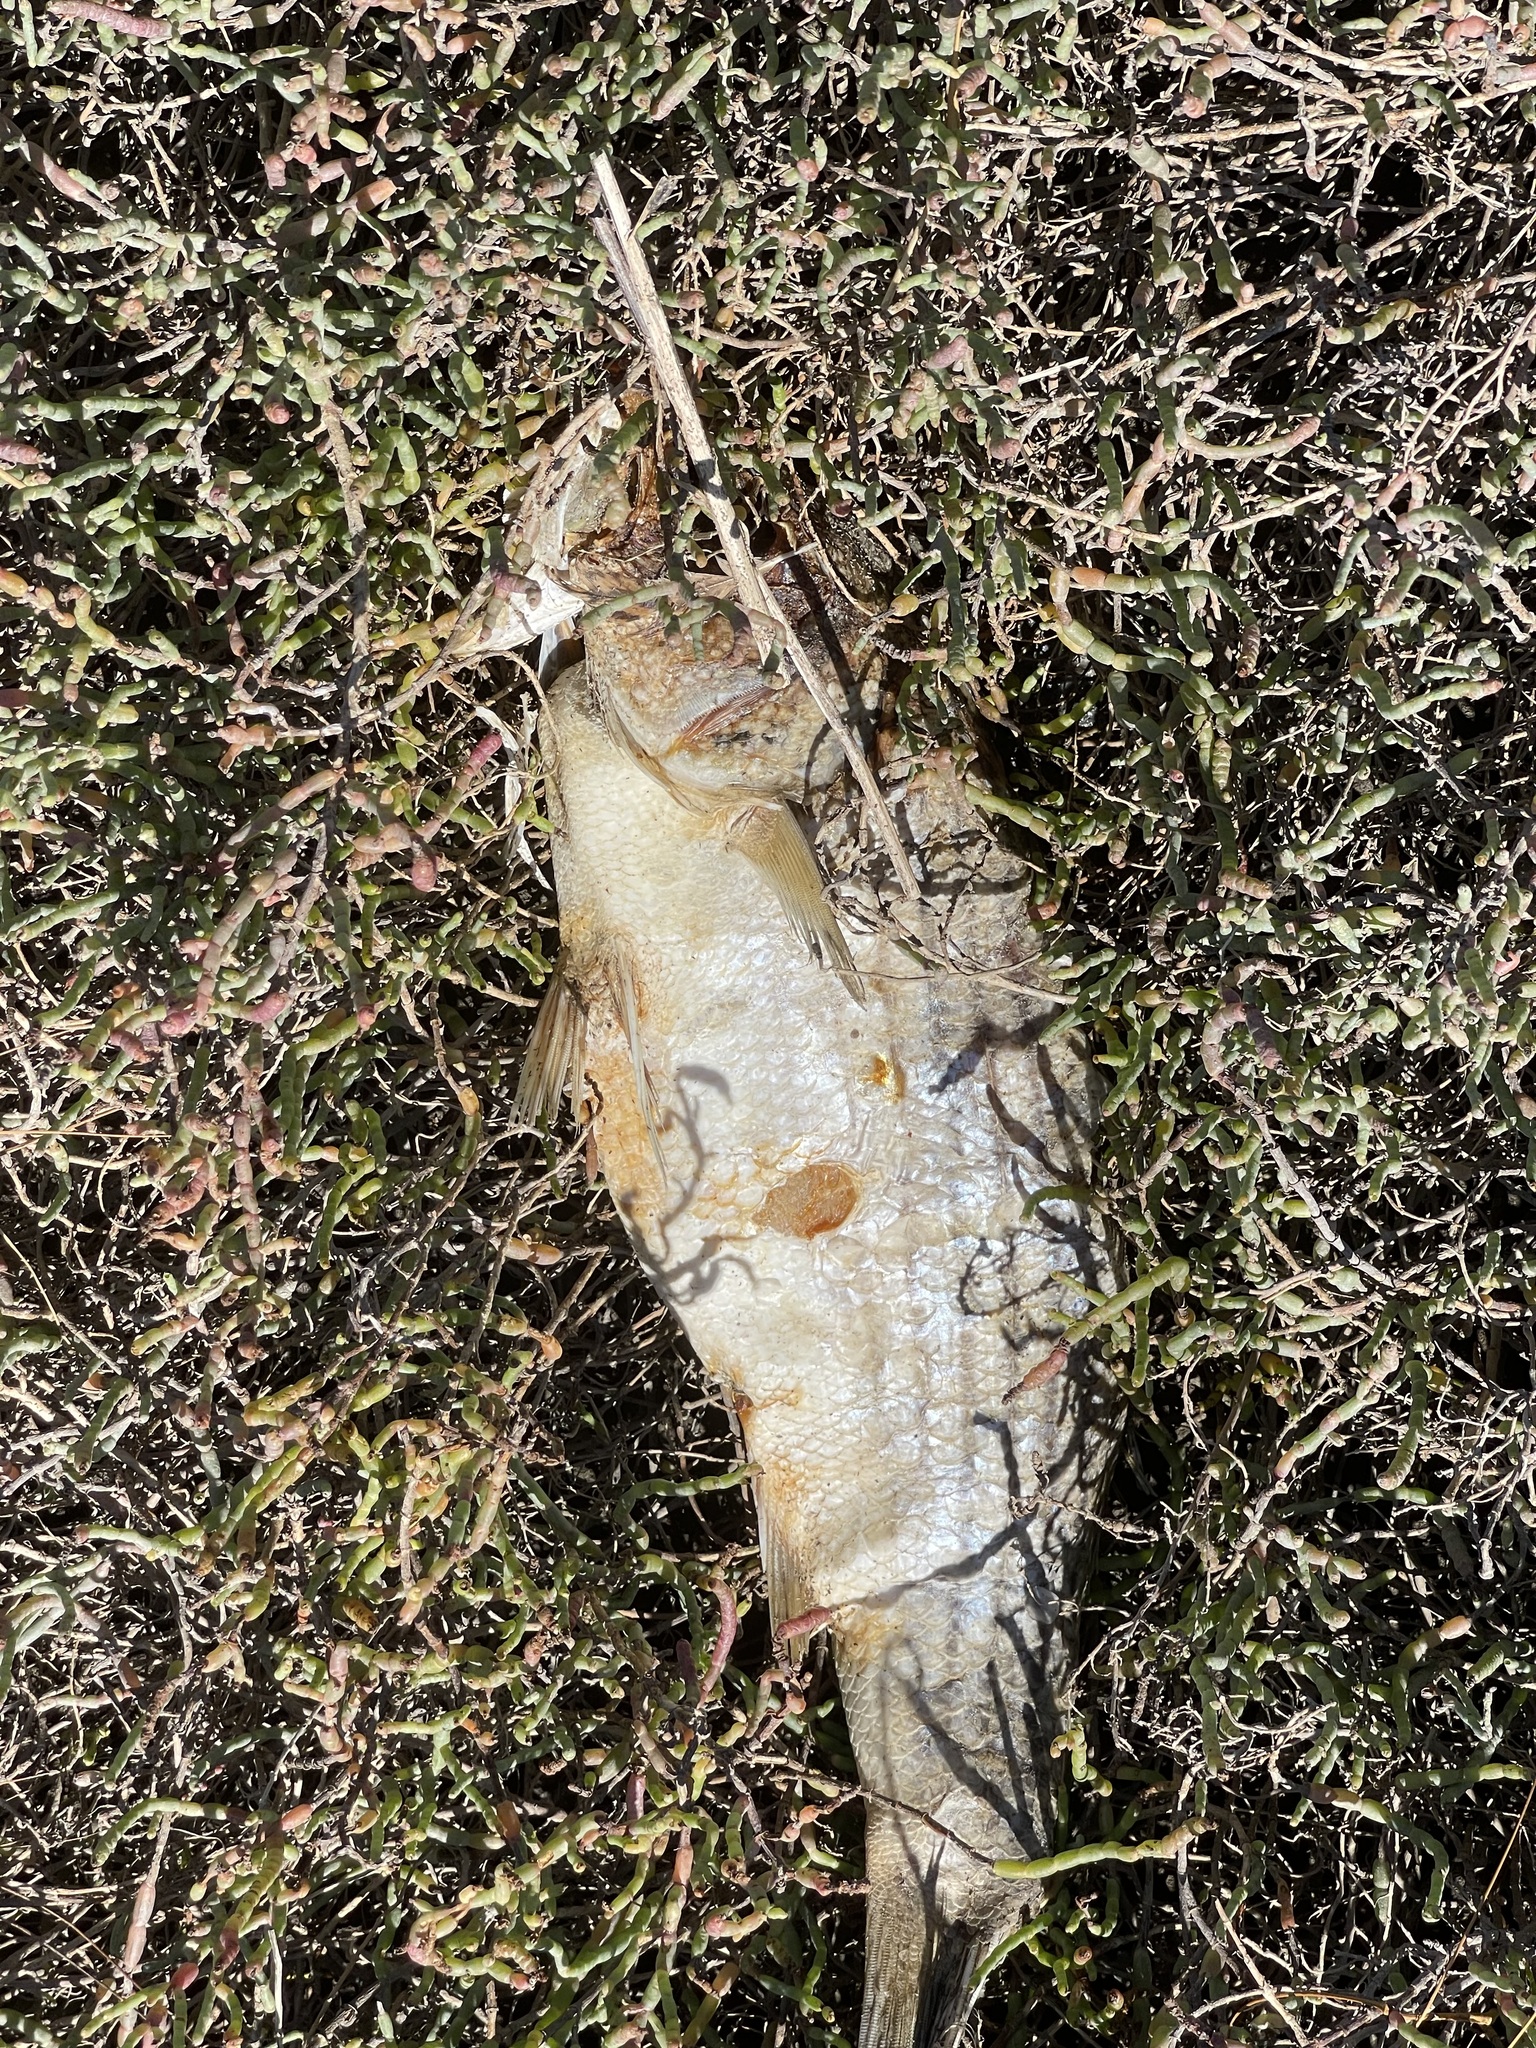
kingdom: Animalia
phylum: Chordata
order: Perciformes
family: Moronidae
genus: Morone
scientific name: Morone saxatilis
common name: Striped bass
